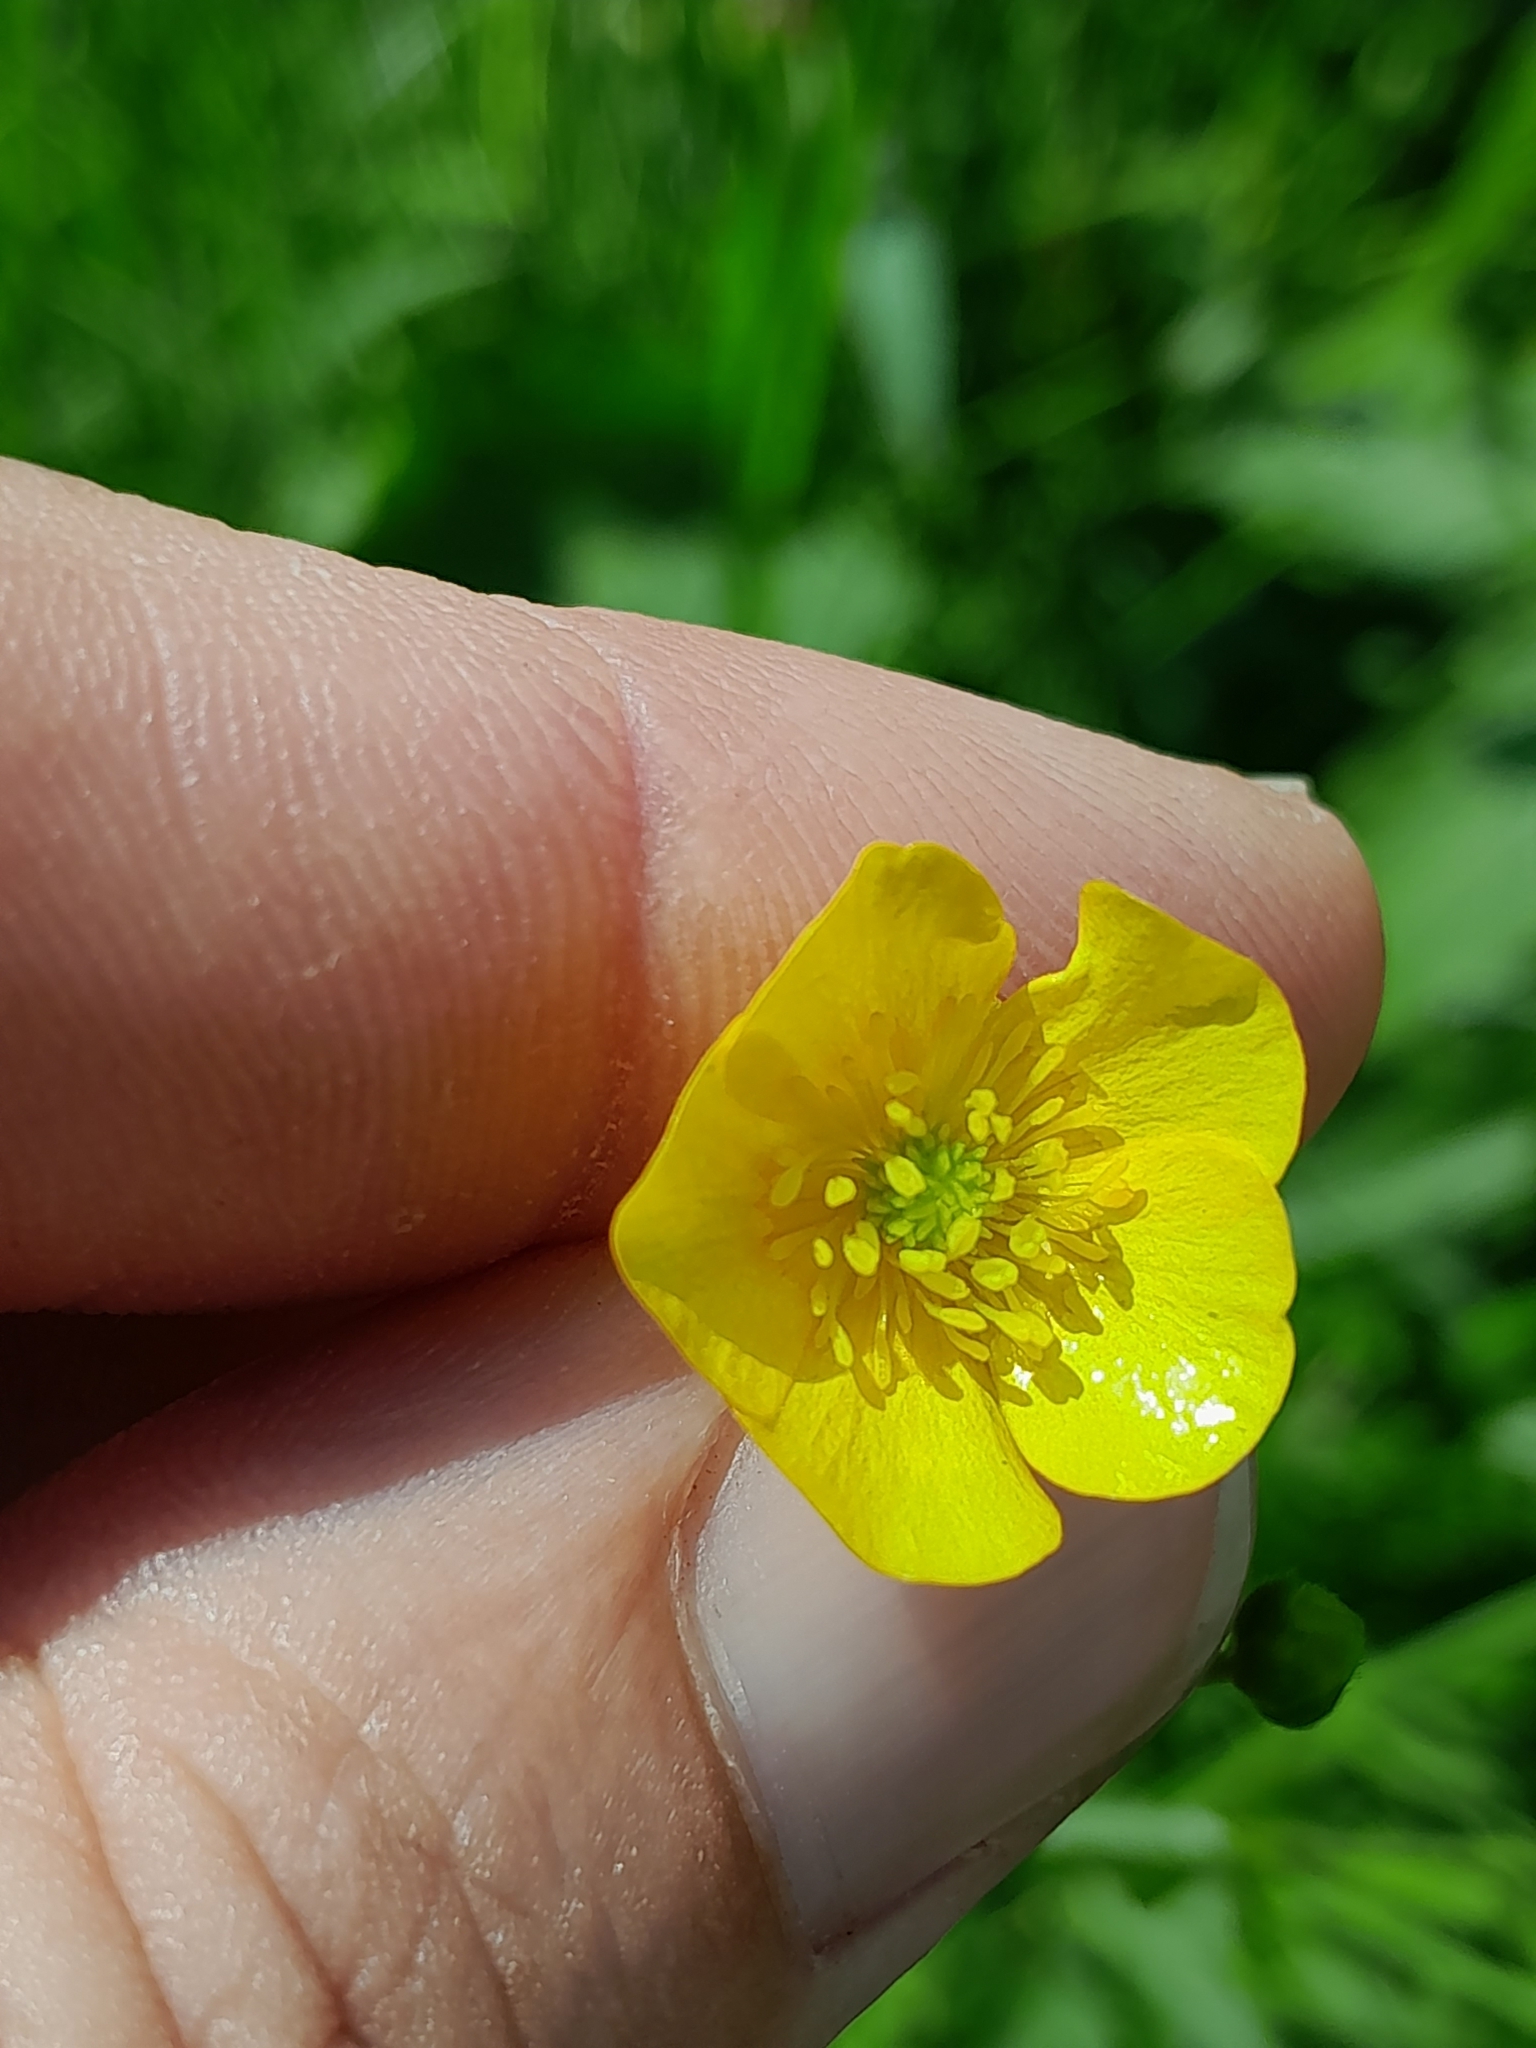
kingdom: Plantae
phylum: Tracheophyta
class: Magnoliopsida
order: Ranunculales
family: Ranunculaceae
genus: Ranunculus
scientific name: Ranunculus acris
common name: Meadow buttercup
